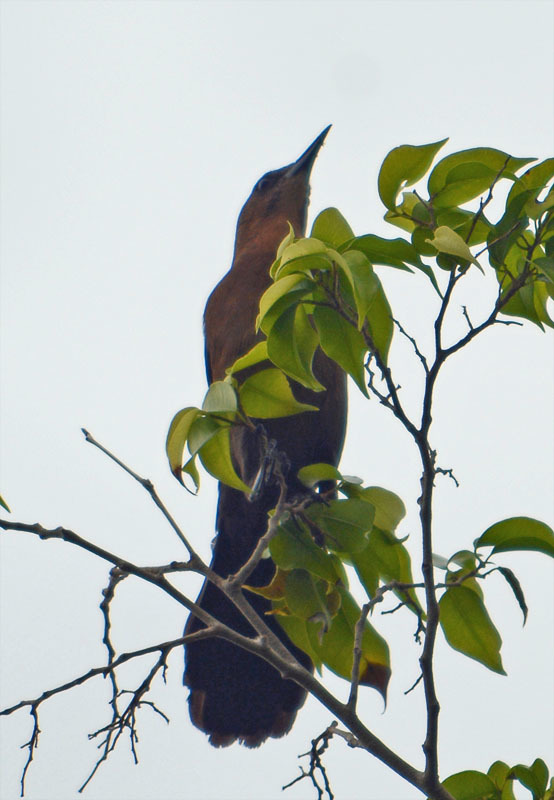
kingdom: Animalia
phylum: Chordata
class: Aves
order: Passeriformes
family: Icteridae
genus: Quiscalus
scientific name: Quiscalus major
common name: Boat-tailed grackle
